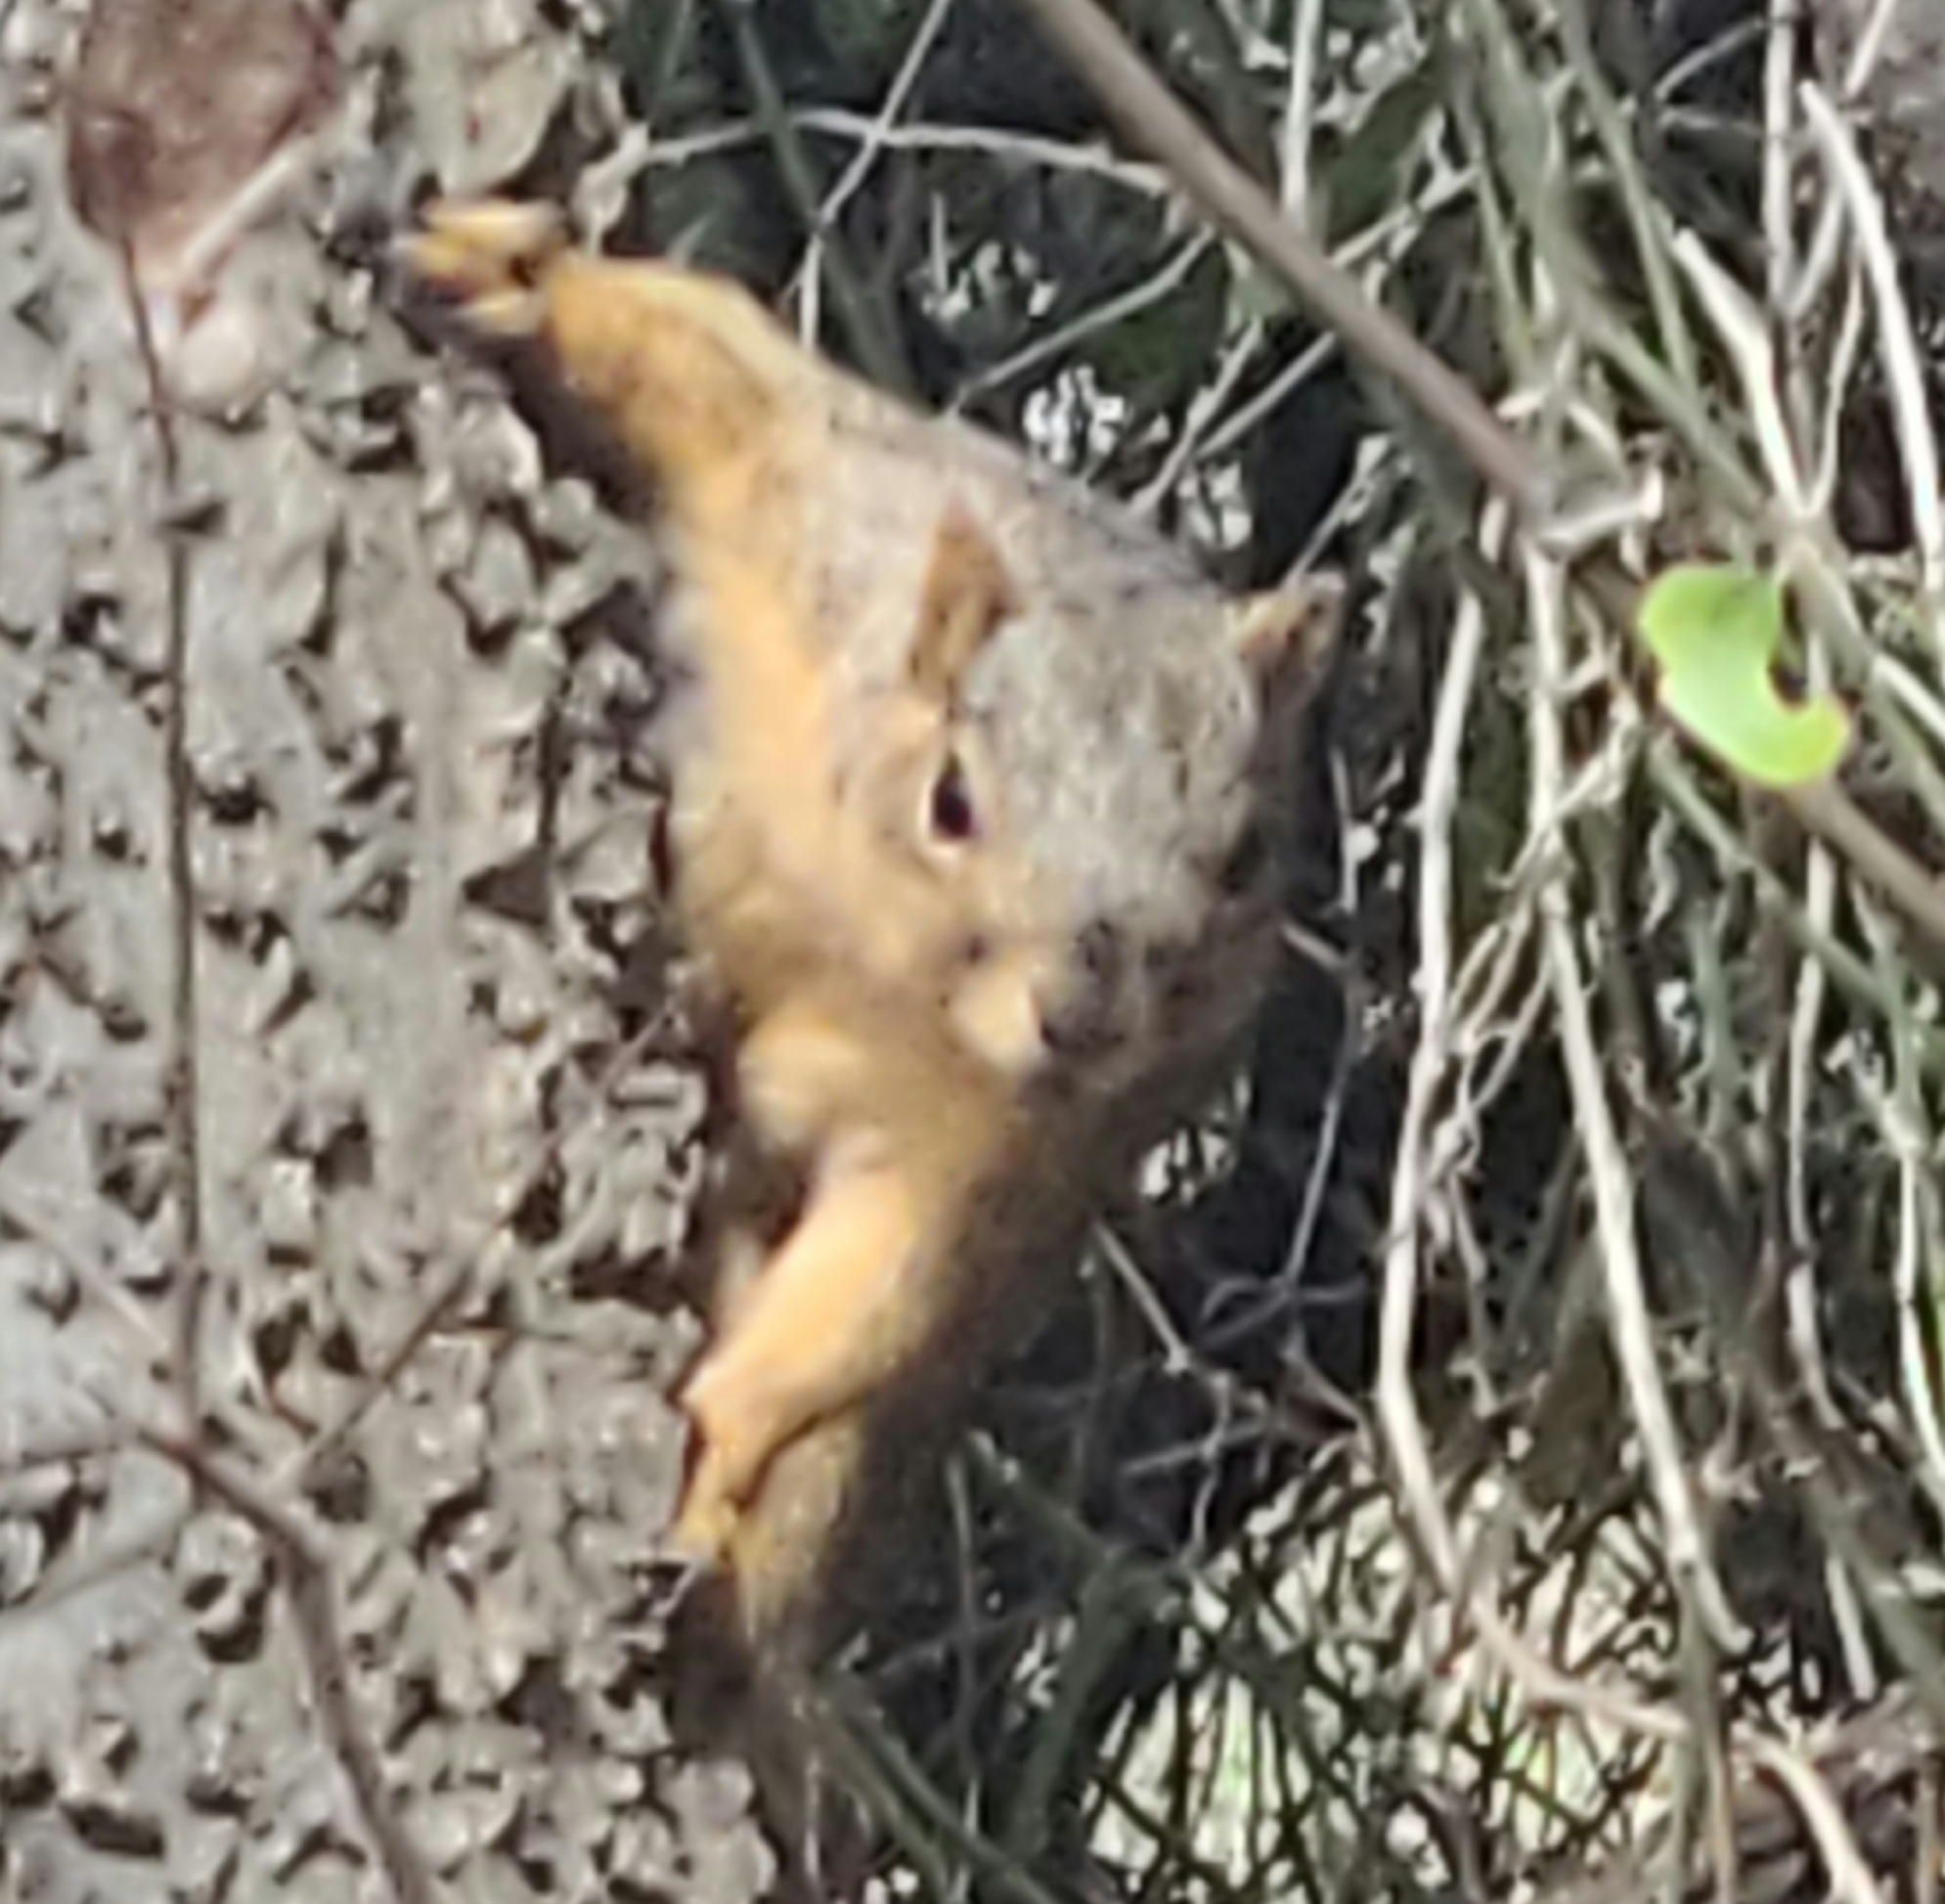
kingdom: Animalia
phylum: Chordata
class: Mammalia
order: Rodentia
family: Sciuridae
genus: Sciurus
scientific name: Sciurus niger
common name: Fox squirrel
